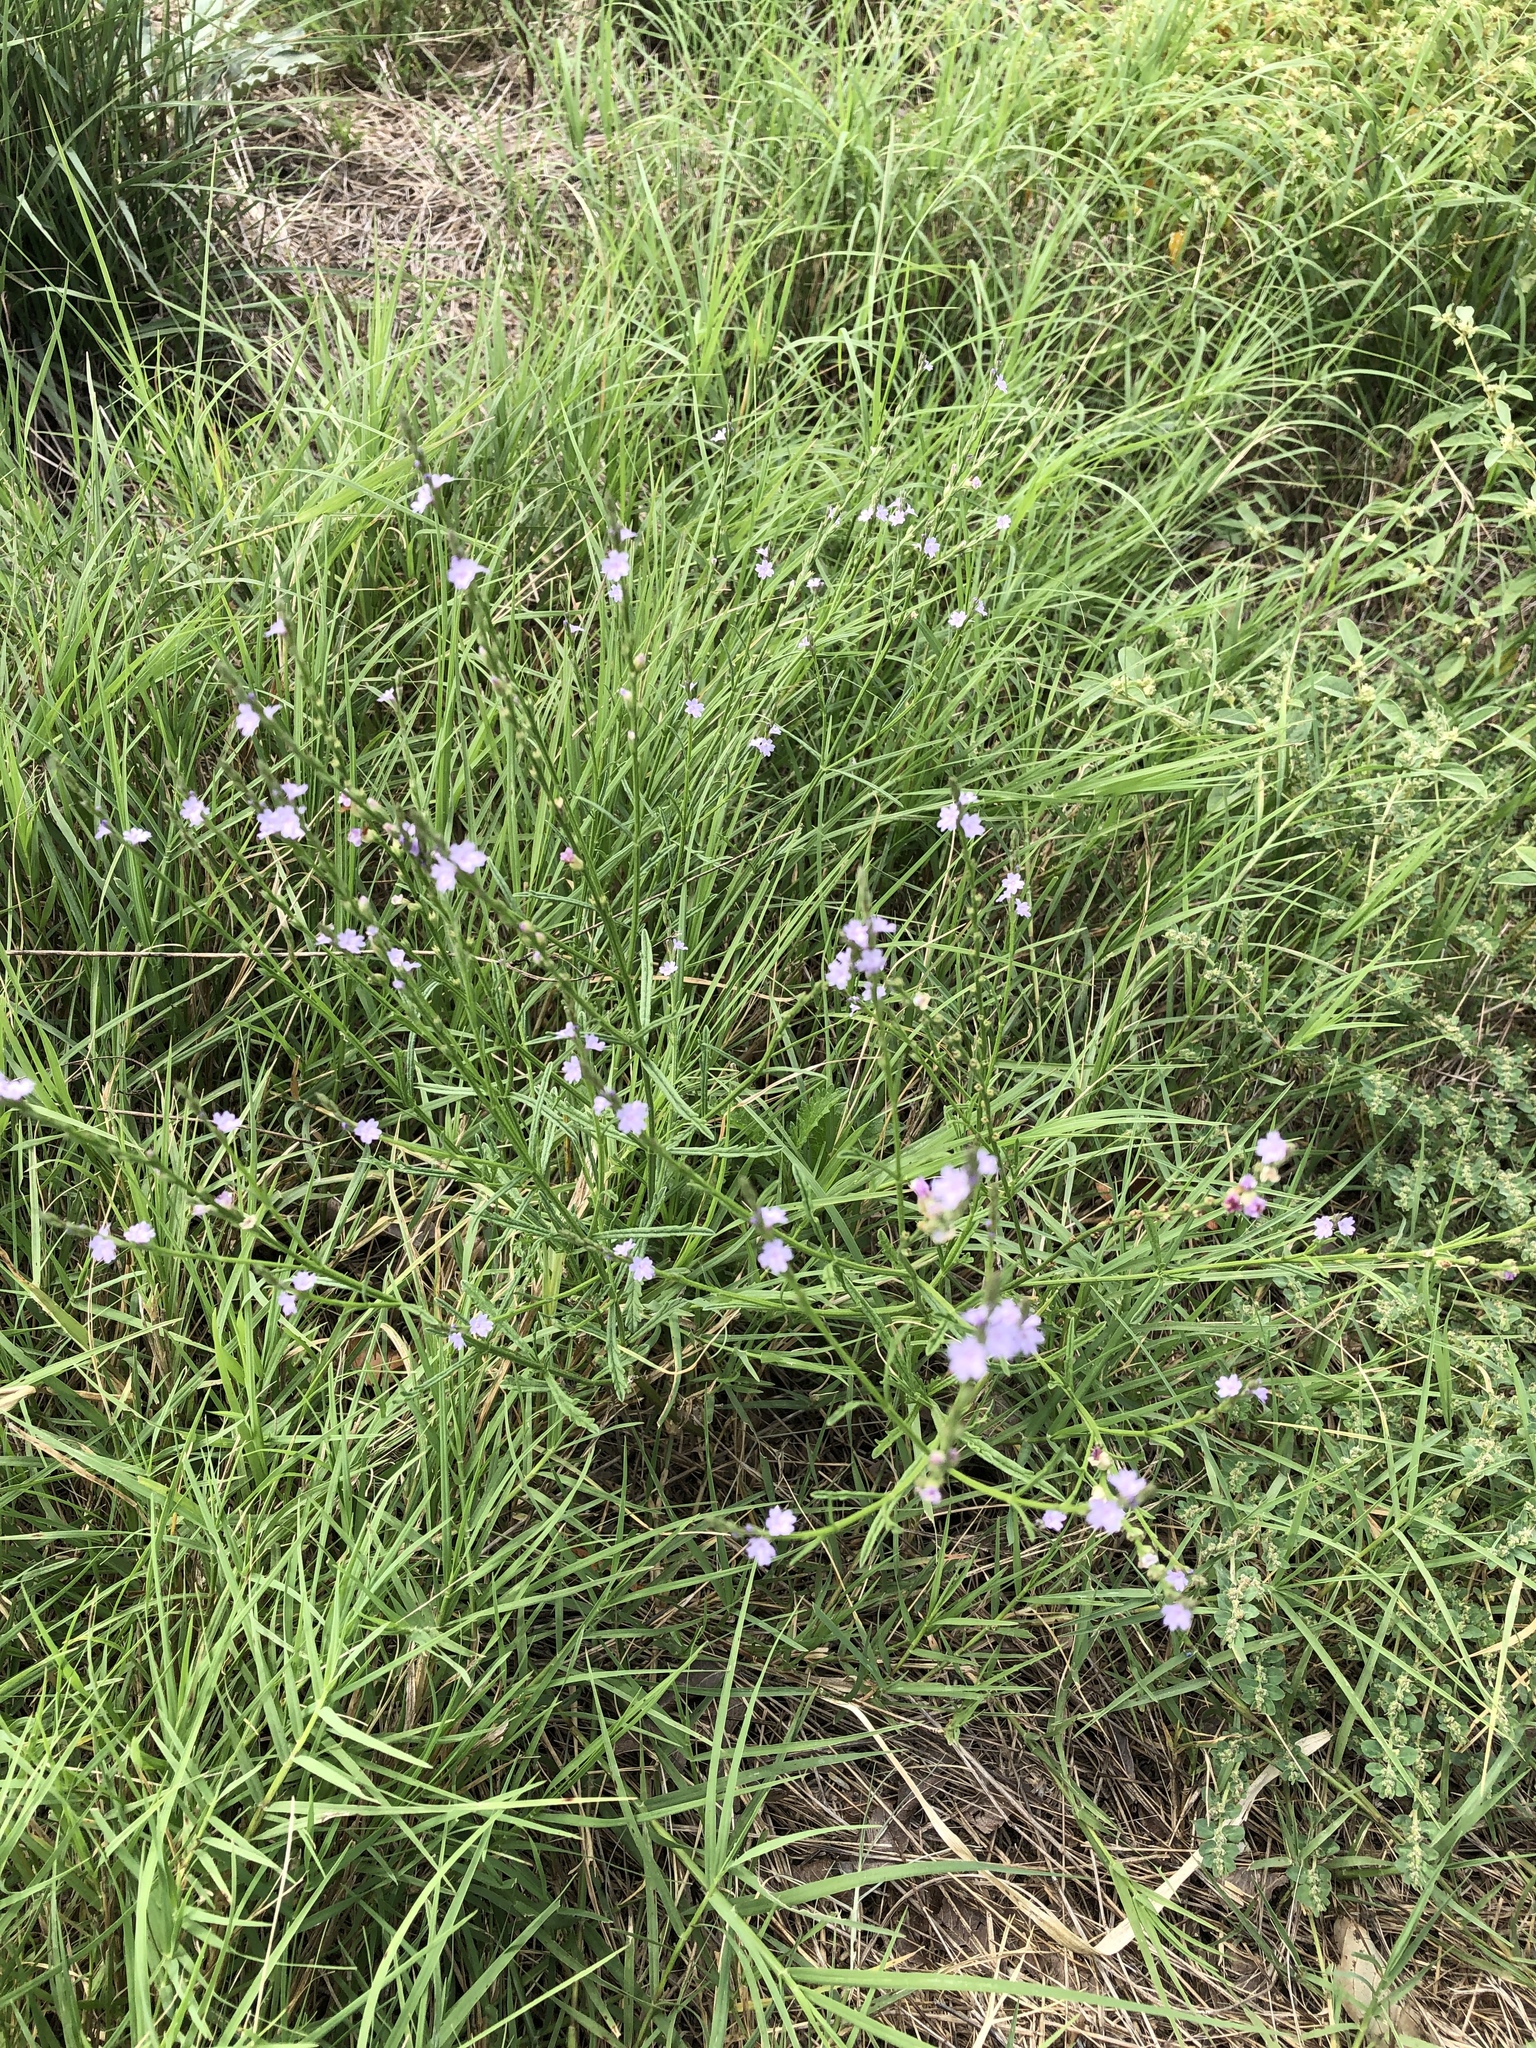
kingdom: Plantae
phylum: Tracheophyta
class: Magnoliopsida
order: Lamiales
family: Verbenaceae
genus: Verbena
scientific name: Verbena halei
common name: Texas vervain
